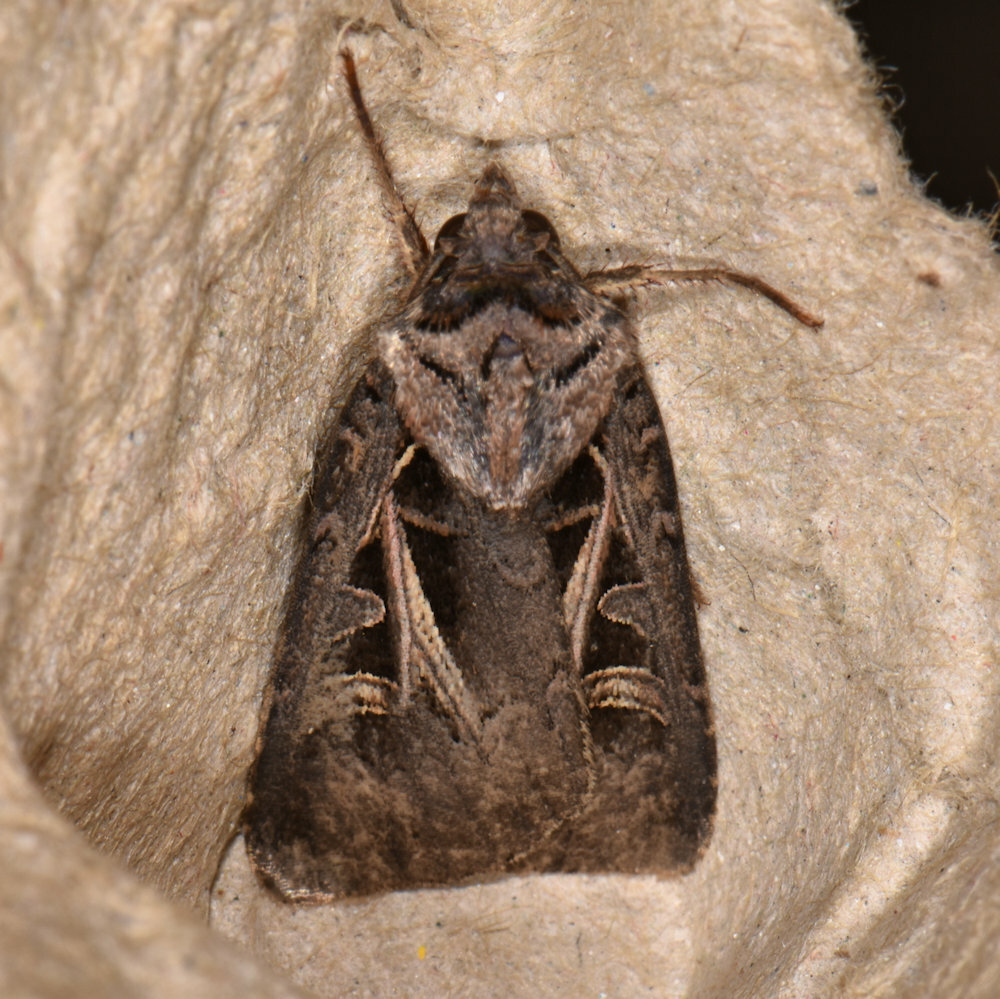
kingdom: Animalia
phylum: Arthropoda
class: Insecta
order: Lepidoptera
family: Noctuidae
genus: Feltia
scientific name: Feltia herilis
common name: Master's dart
